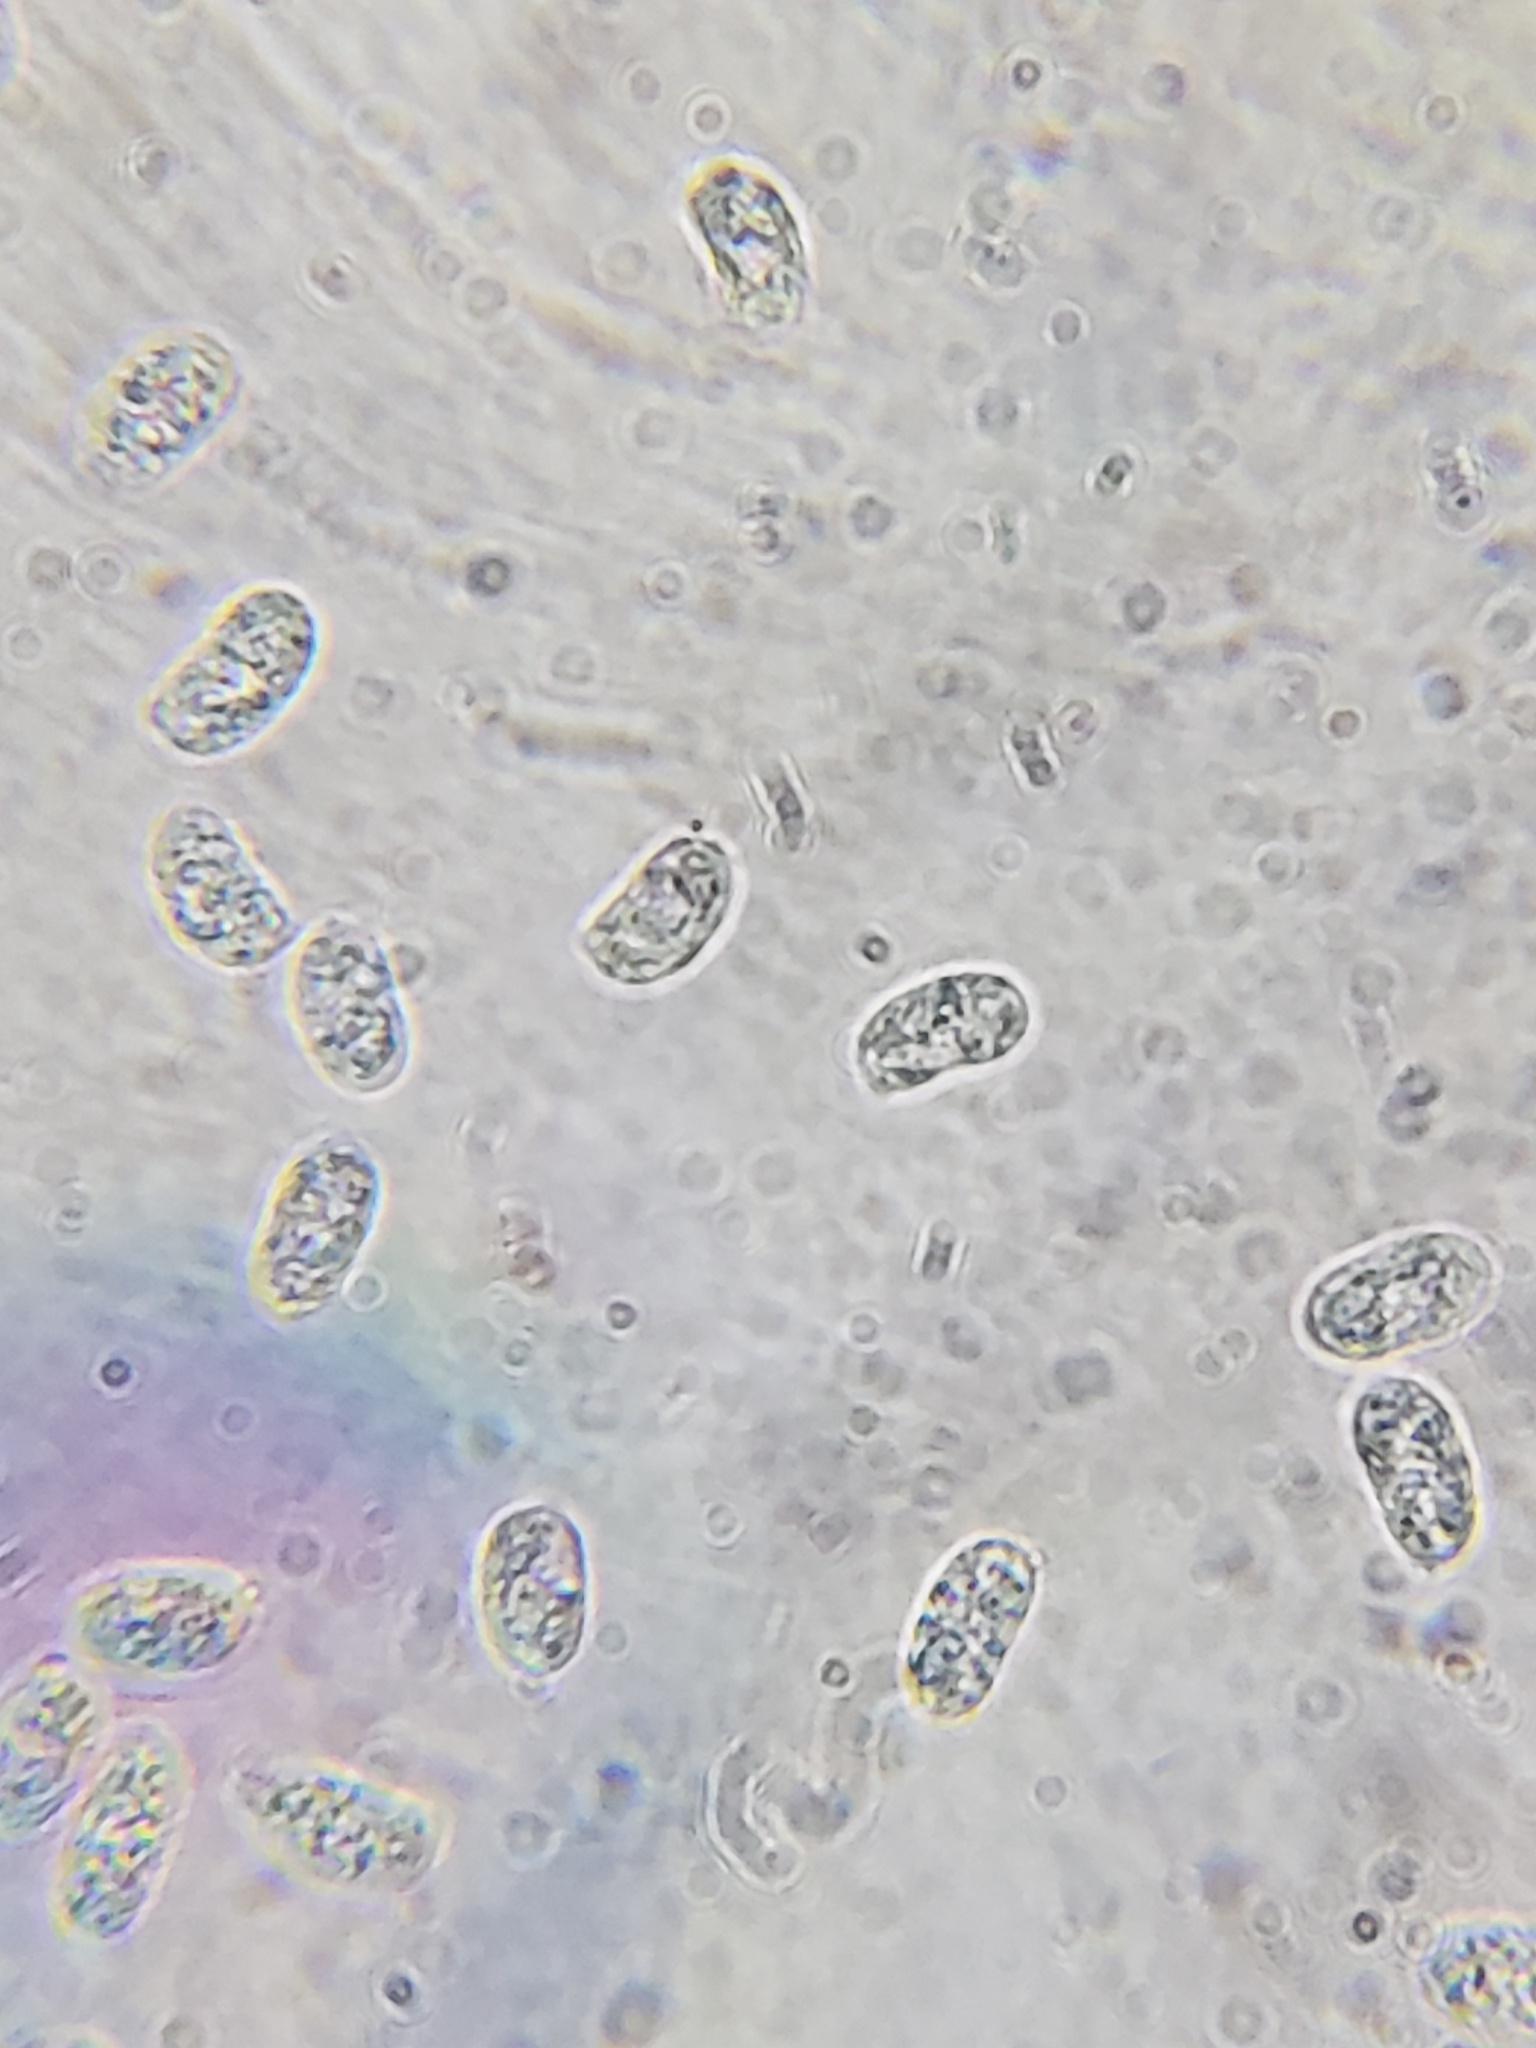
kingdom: Fungi
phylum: Basidiomycota
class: Agaricomycetes
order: Auriculariales
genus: Ductifera
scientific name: Ductifera pululahuana
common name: White jelly fungus
